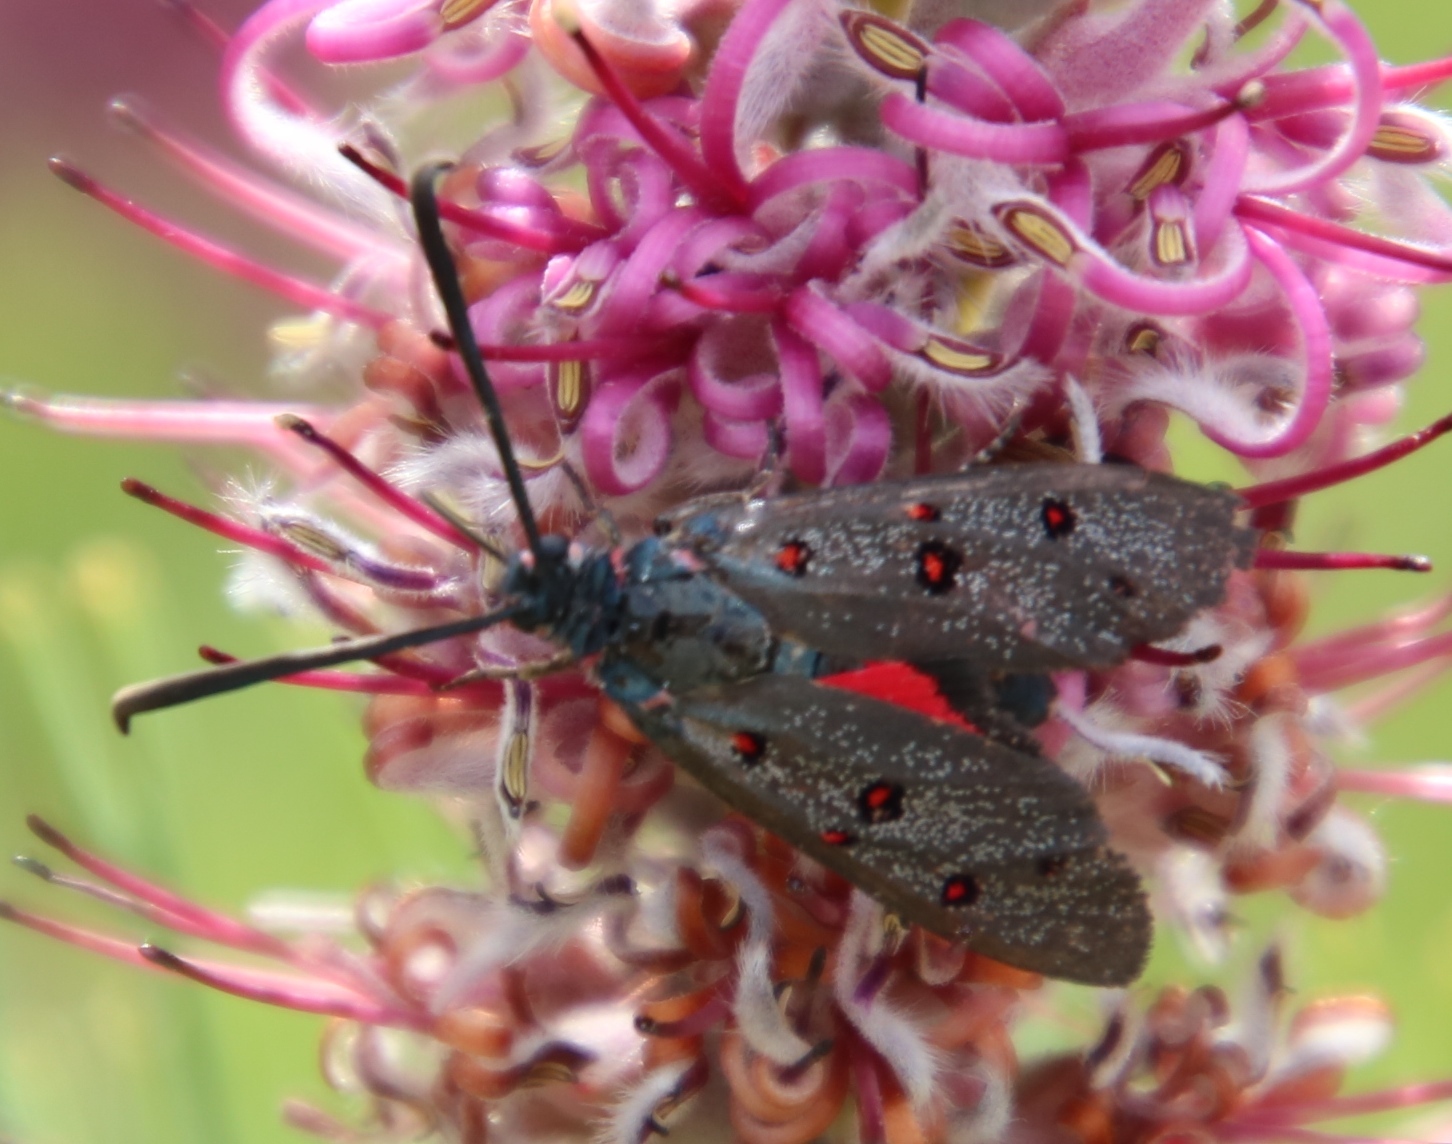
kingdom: Plantae
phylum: Tracheophyta
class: Magnoliopsida
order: Proteales
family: Proteaceae
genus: Paranomus
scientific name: Paranomus bracteolaris
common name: Bokkeveld tree sceptre
